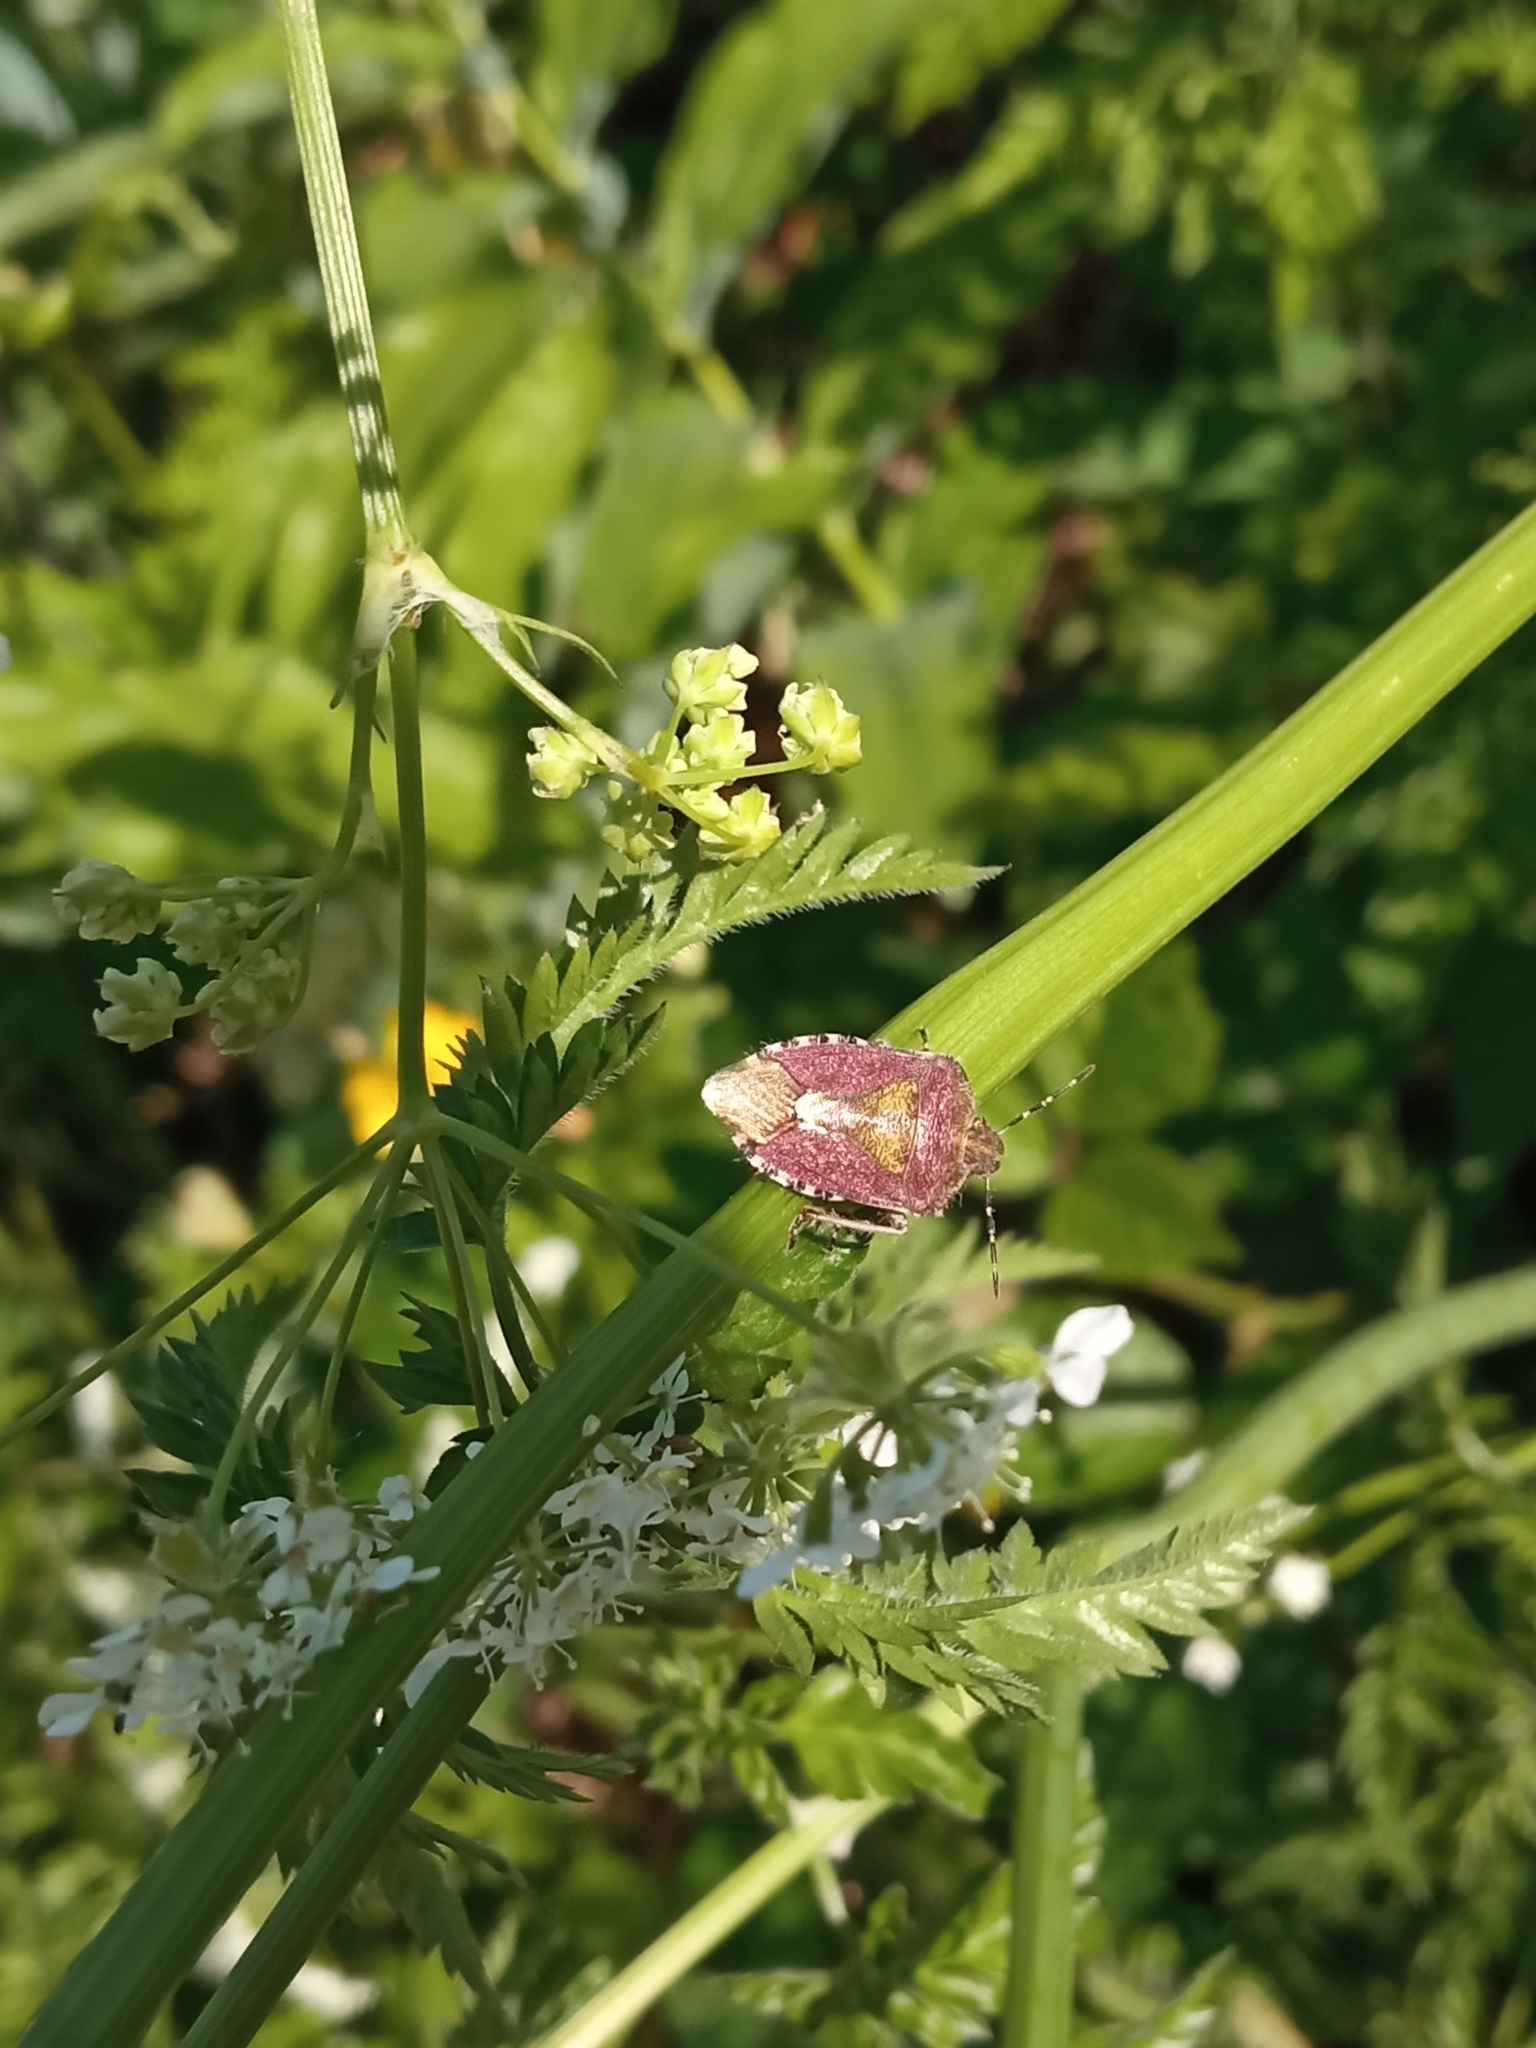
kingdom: Animalia
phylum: Arthropoda
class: Insecta
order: Hemiptera
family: Pentatomidae
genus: Dolycoris
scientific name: Dolycoris baccarum
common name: Sloe bug
